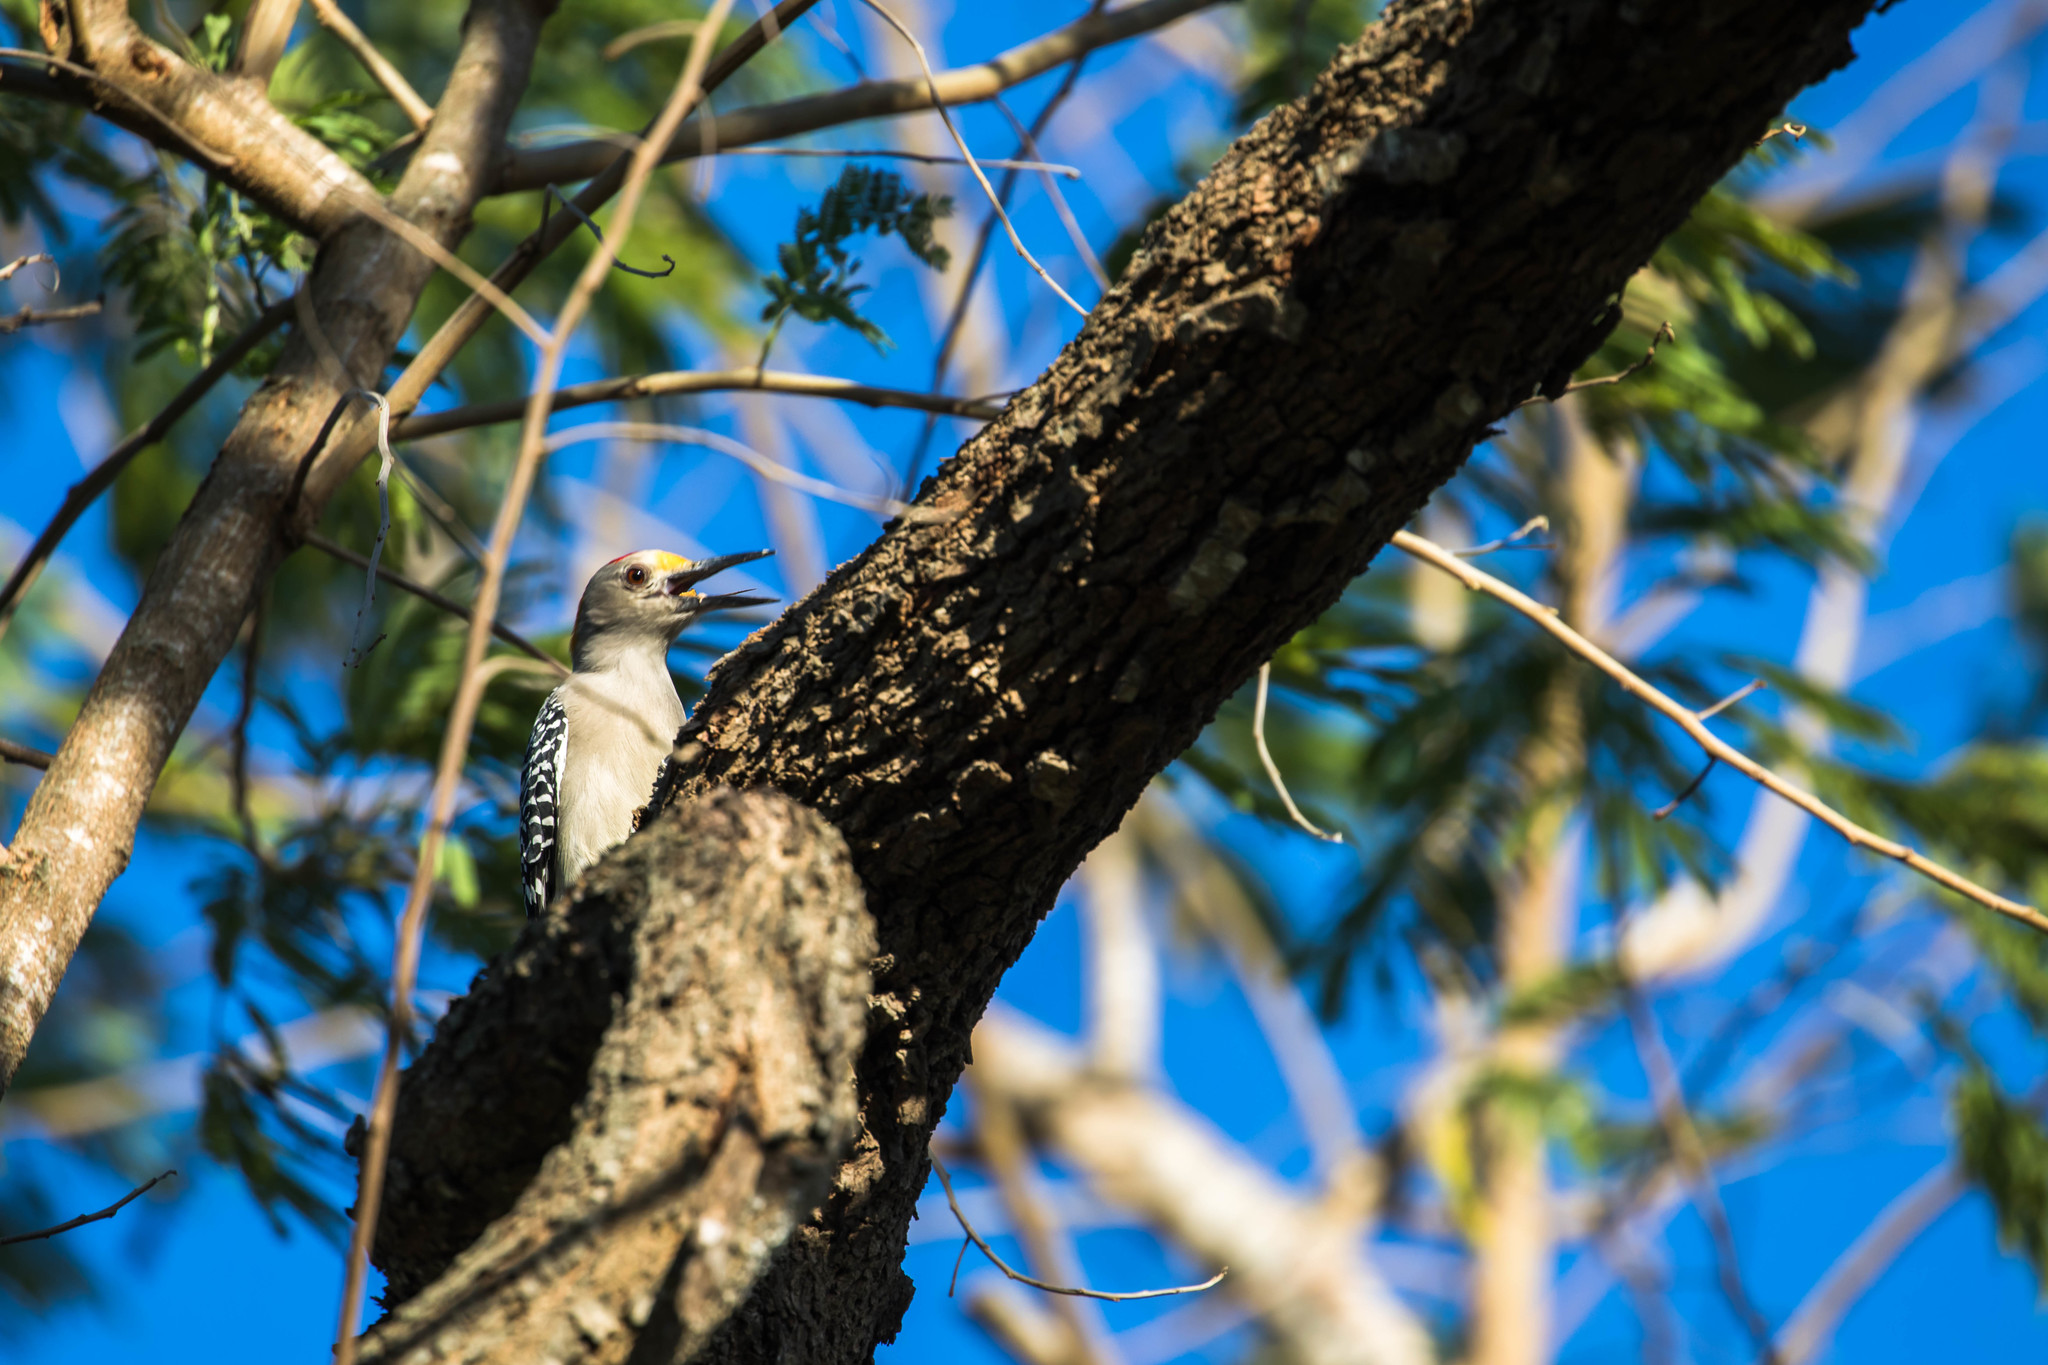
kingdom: Animalia
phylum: Chordata
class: Aves
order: Piciformes
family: Picidae
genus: Melanerpes
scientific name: Melanerpes aurifrons
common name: Golden-fronted woodpecker
